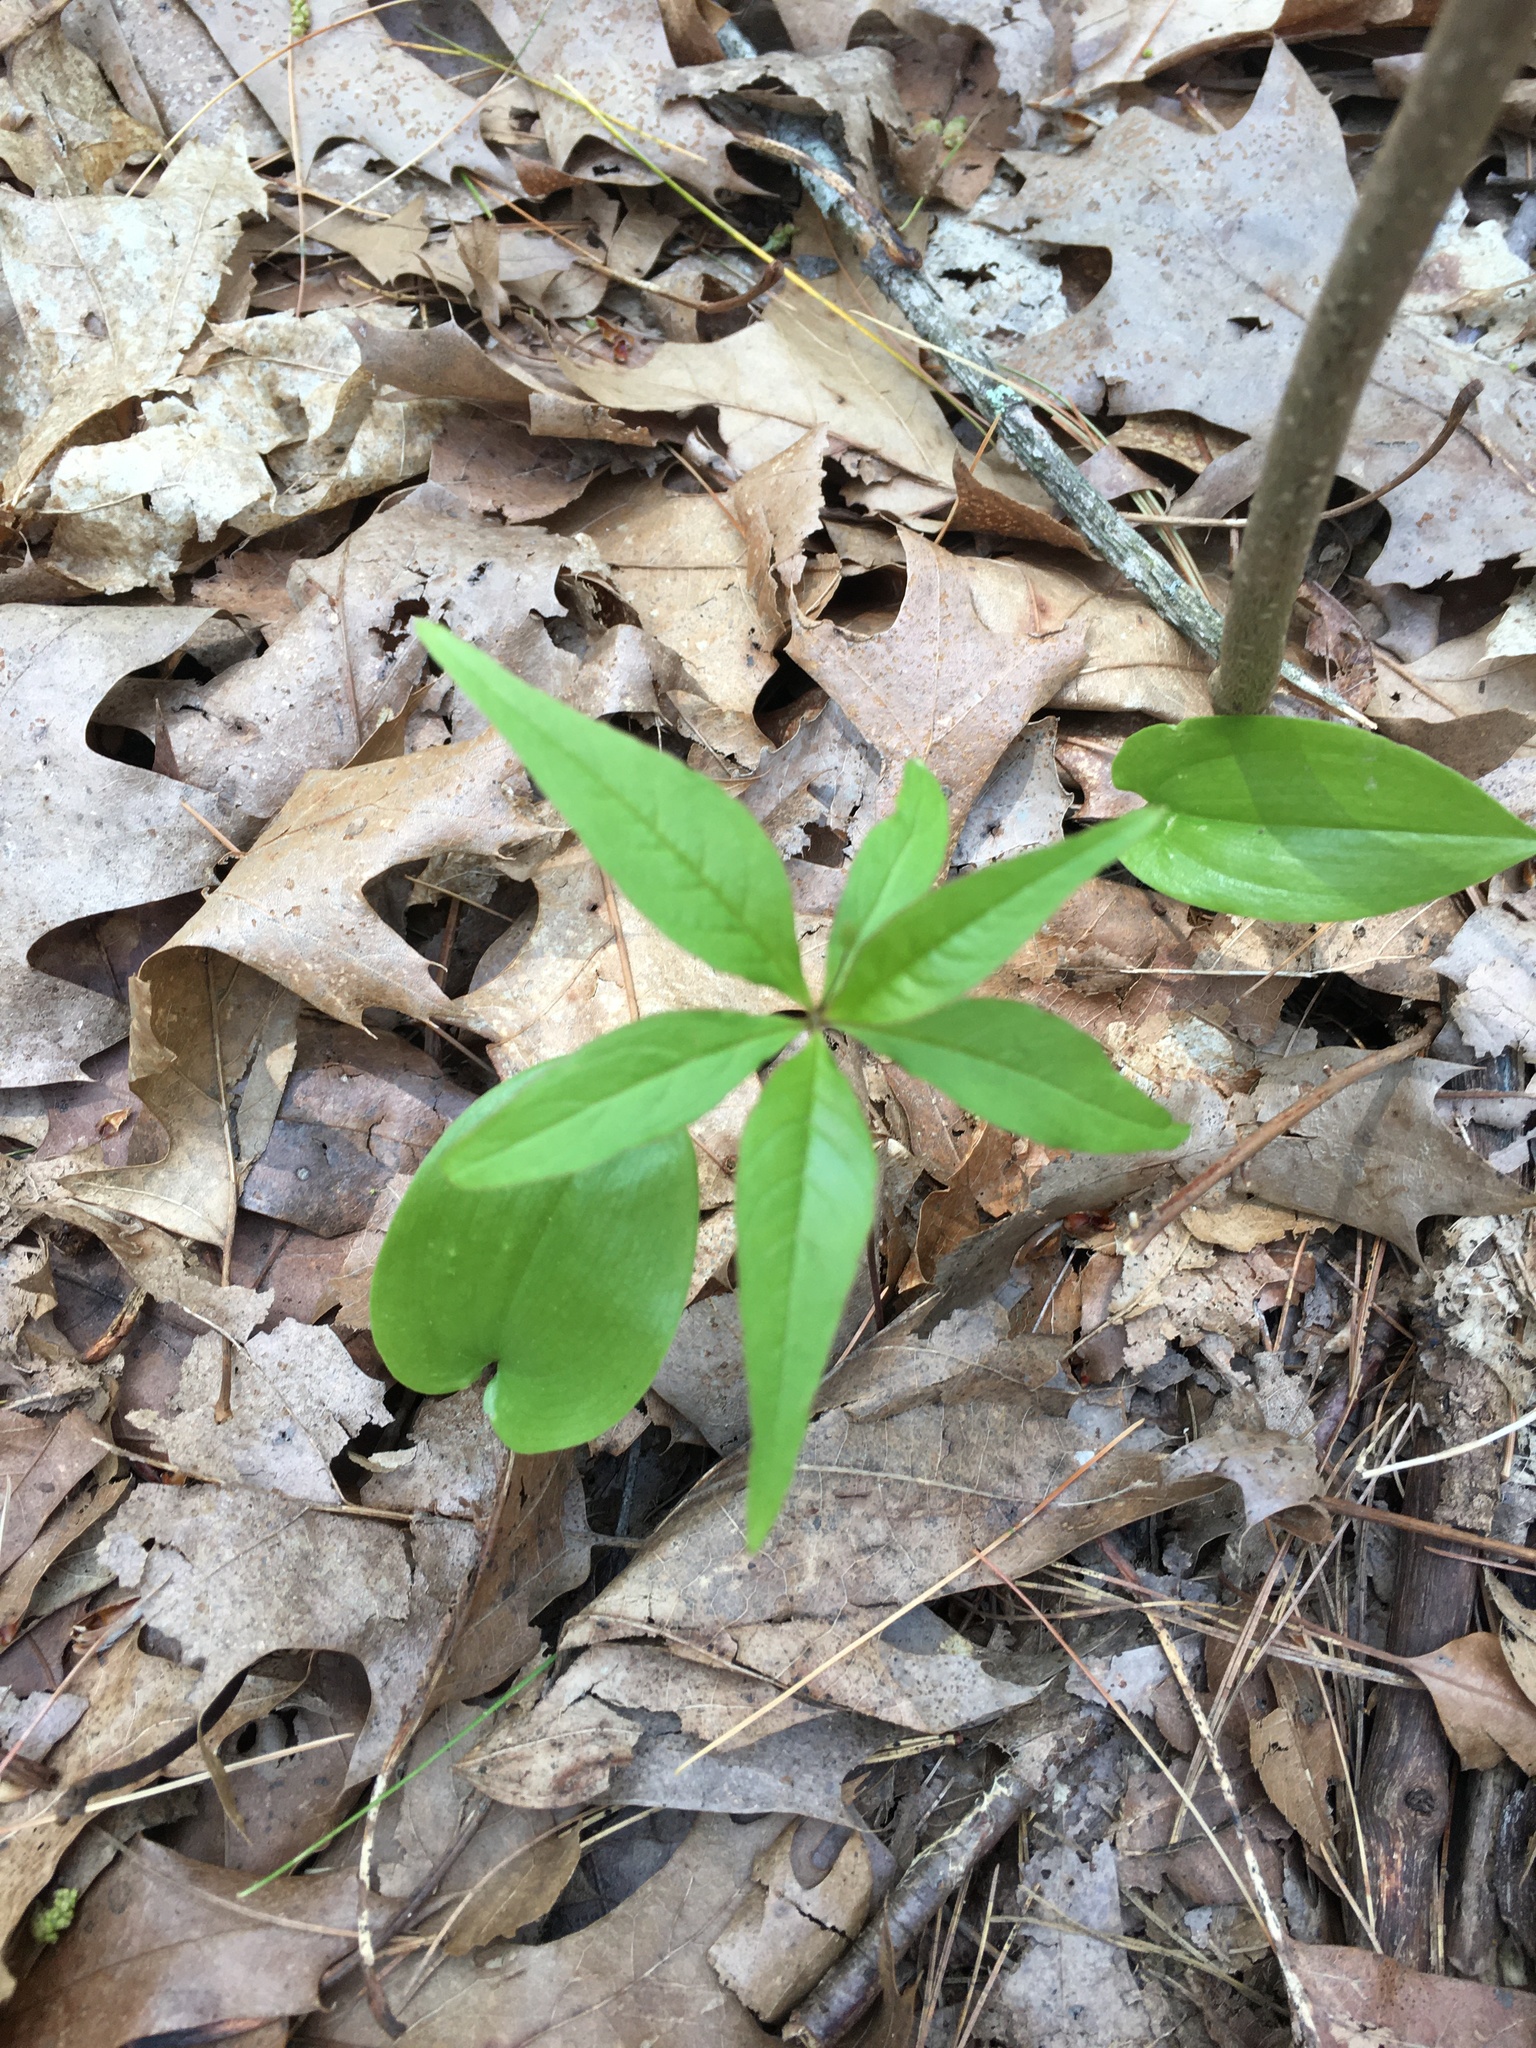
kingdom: Plantae
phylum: Tracheophyta
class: Magnoliopsida
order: Ericales
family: Primulaceae
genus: Lysimachia
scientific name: Lysimachia borealis
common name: American starflower
